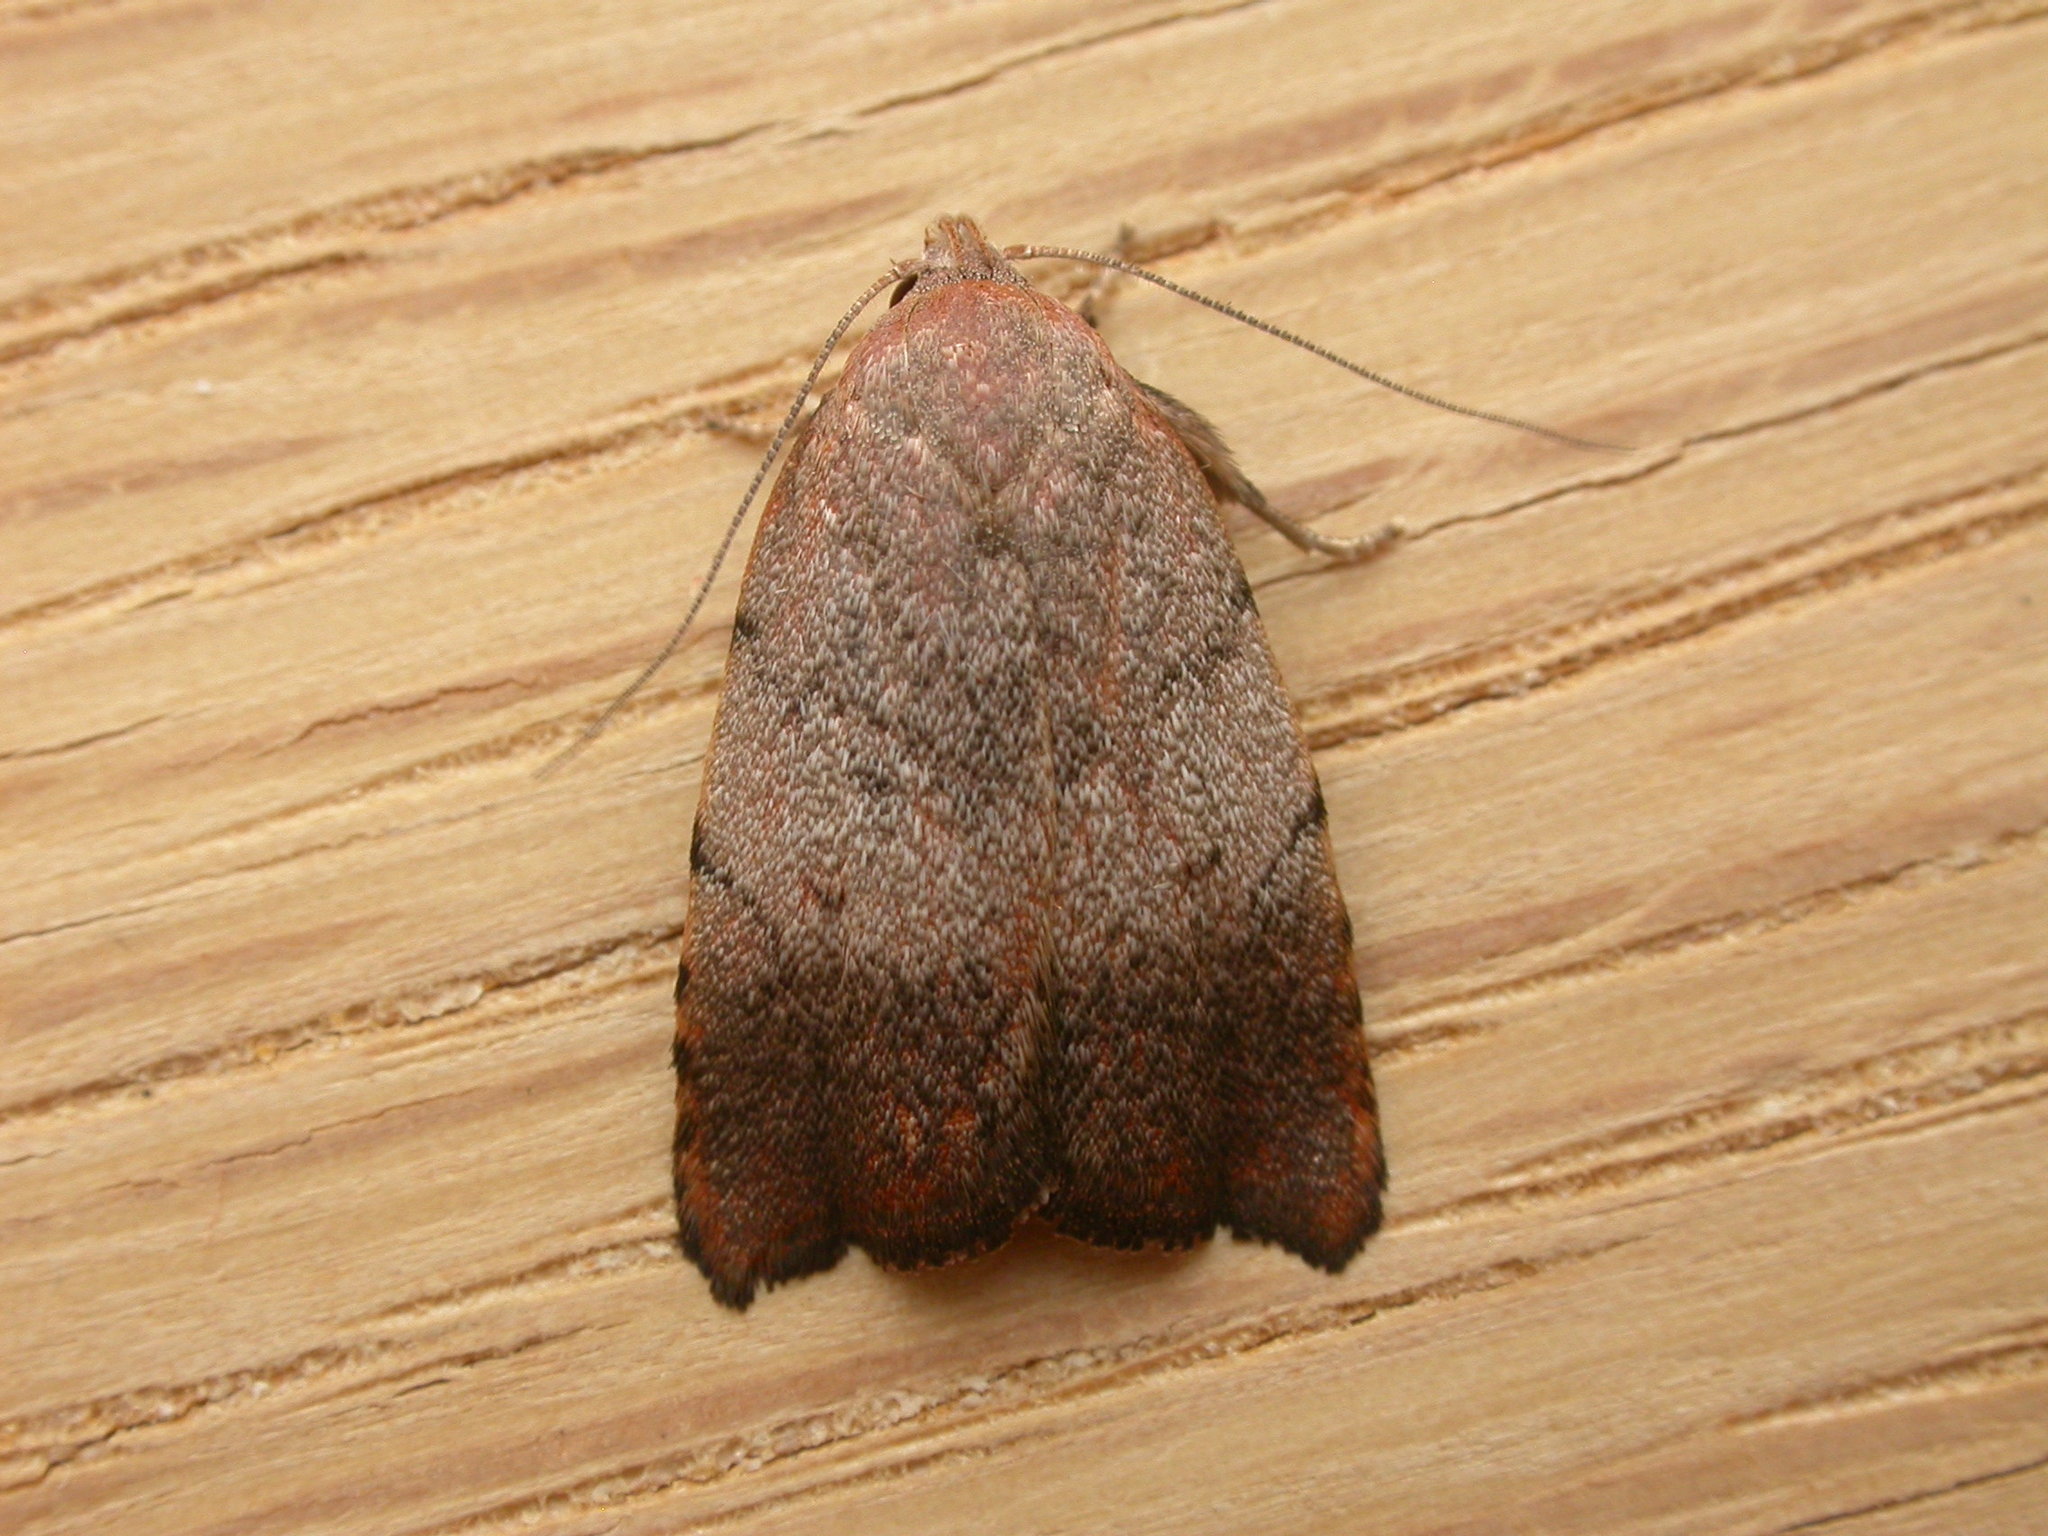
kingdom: Animalia
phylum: Arthropoda
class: Insecta
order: Lepidoptera
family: Oecophoridae
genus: Tortricopsis
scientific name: Tortricopsis semijunctella
